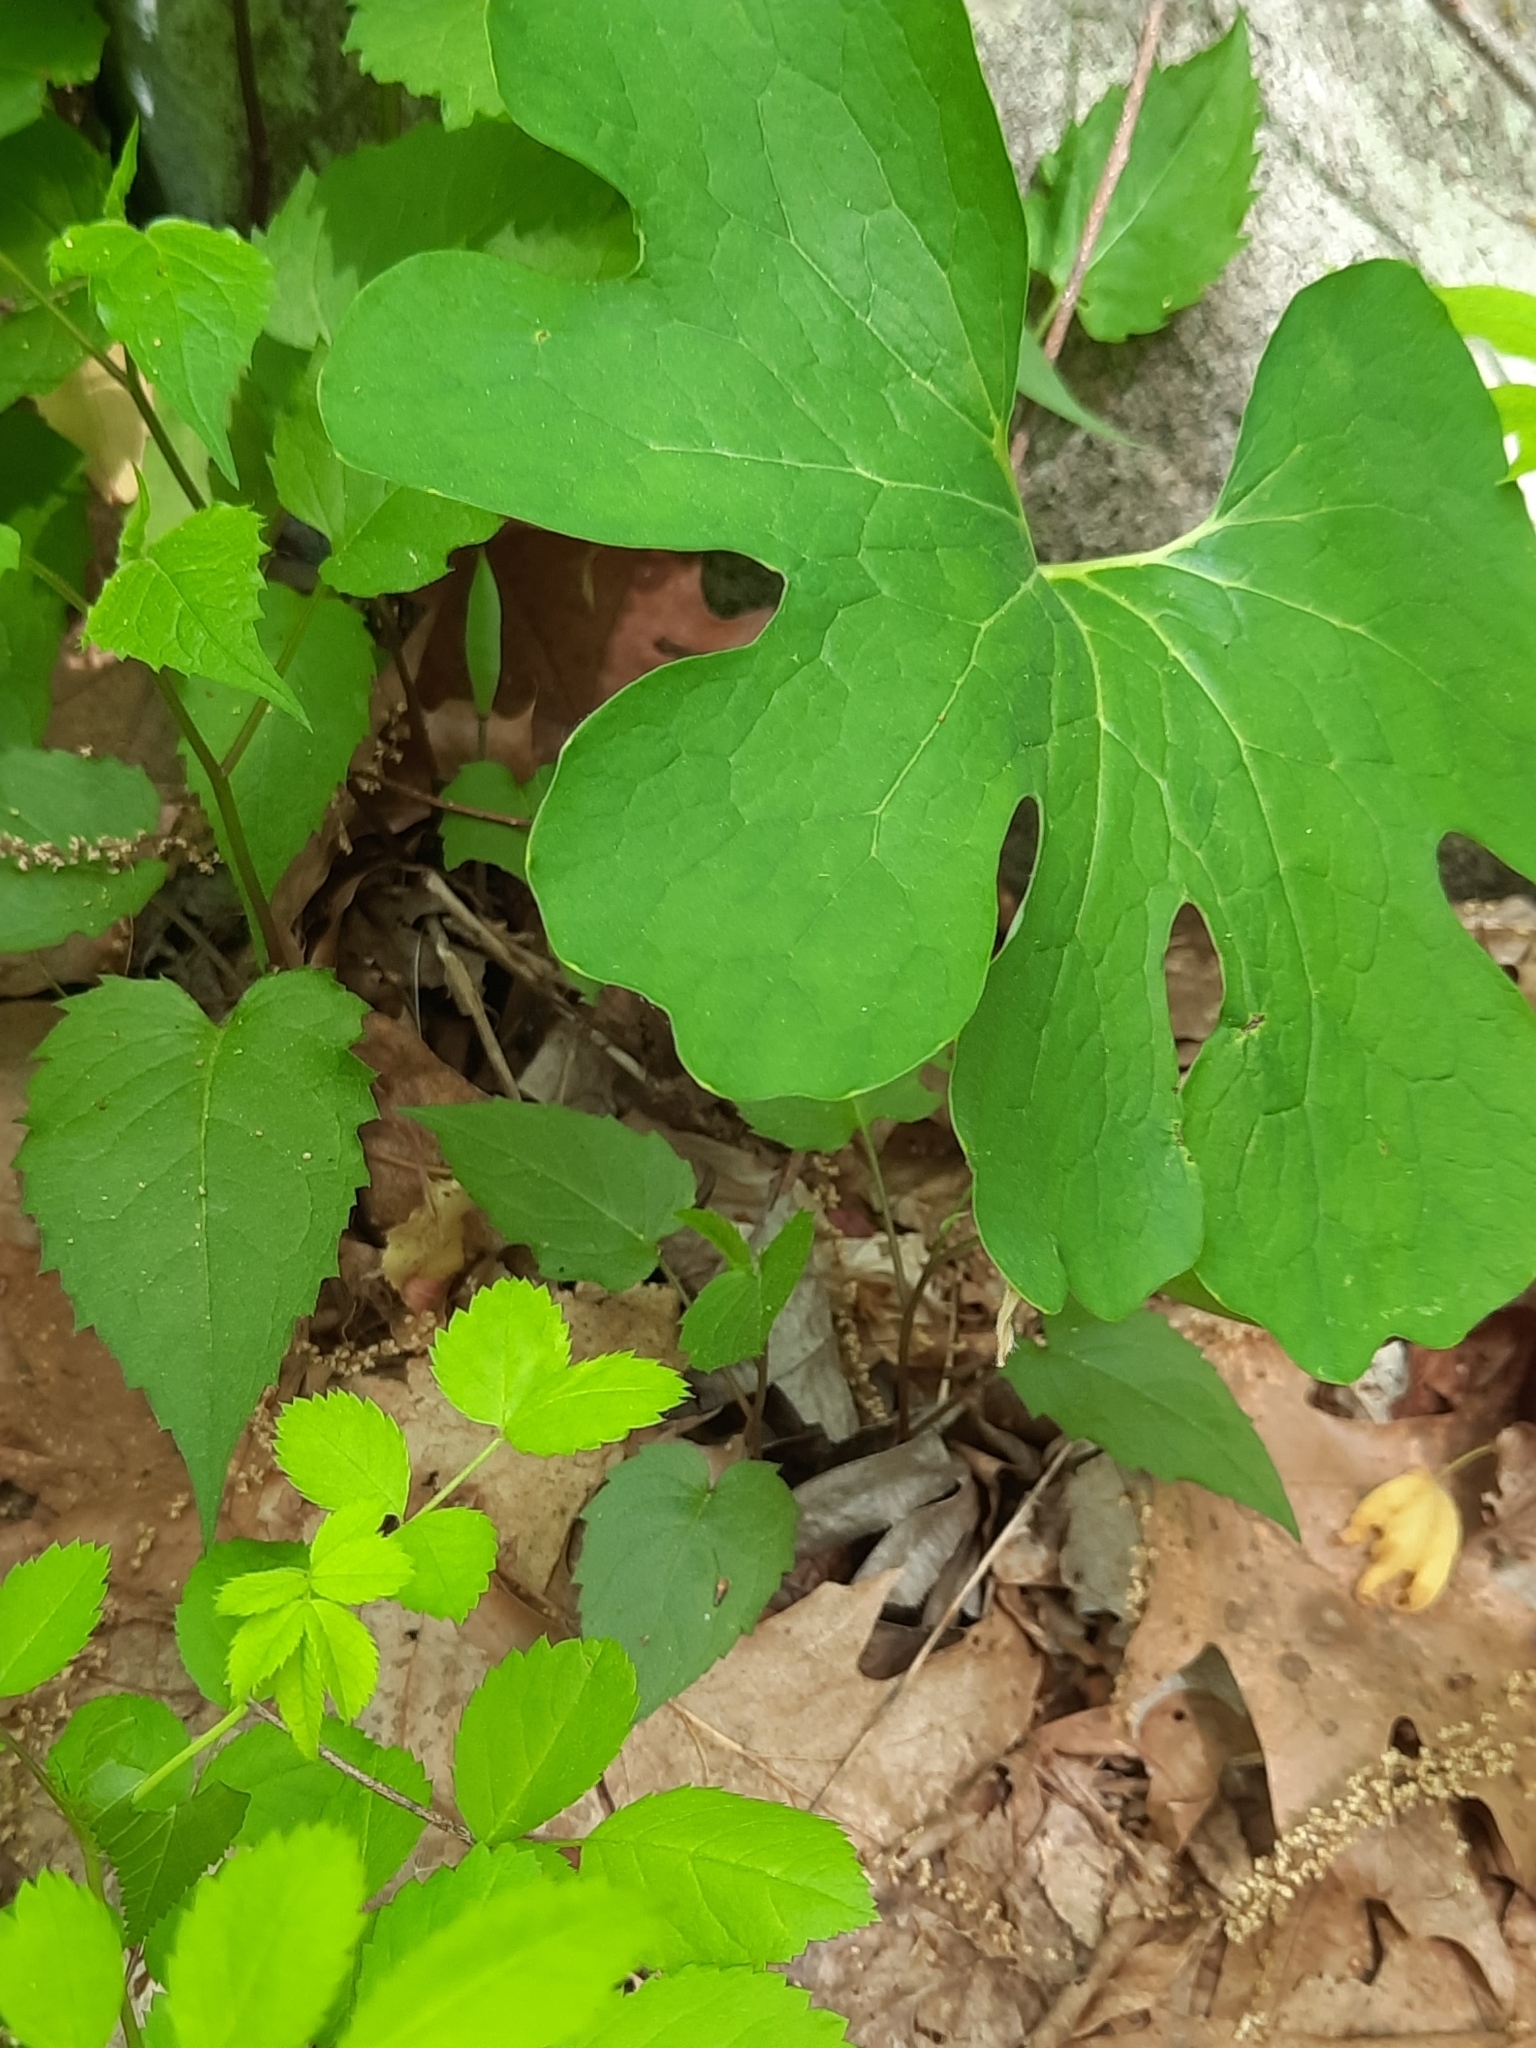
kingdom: Plantae
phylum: Tracheophyta
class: Magnoliopsida
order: Ranunculales
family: Papaveraceae
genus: Sanguinaria
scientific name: Sanguinaria canadensis
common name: Bloodroot
